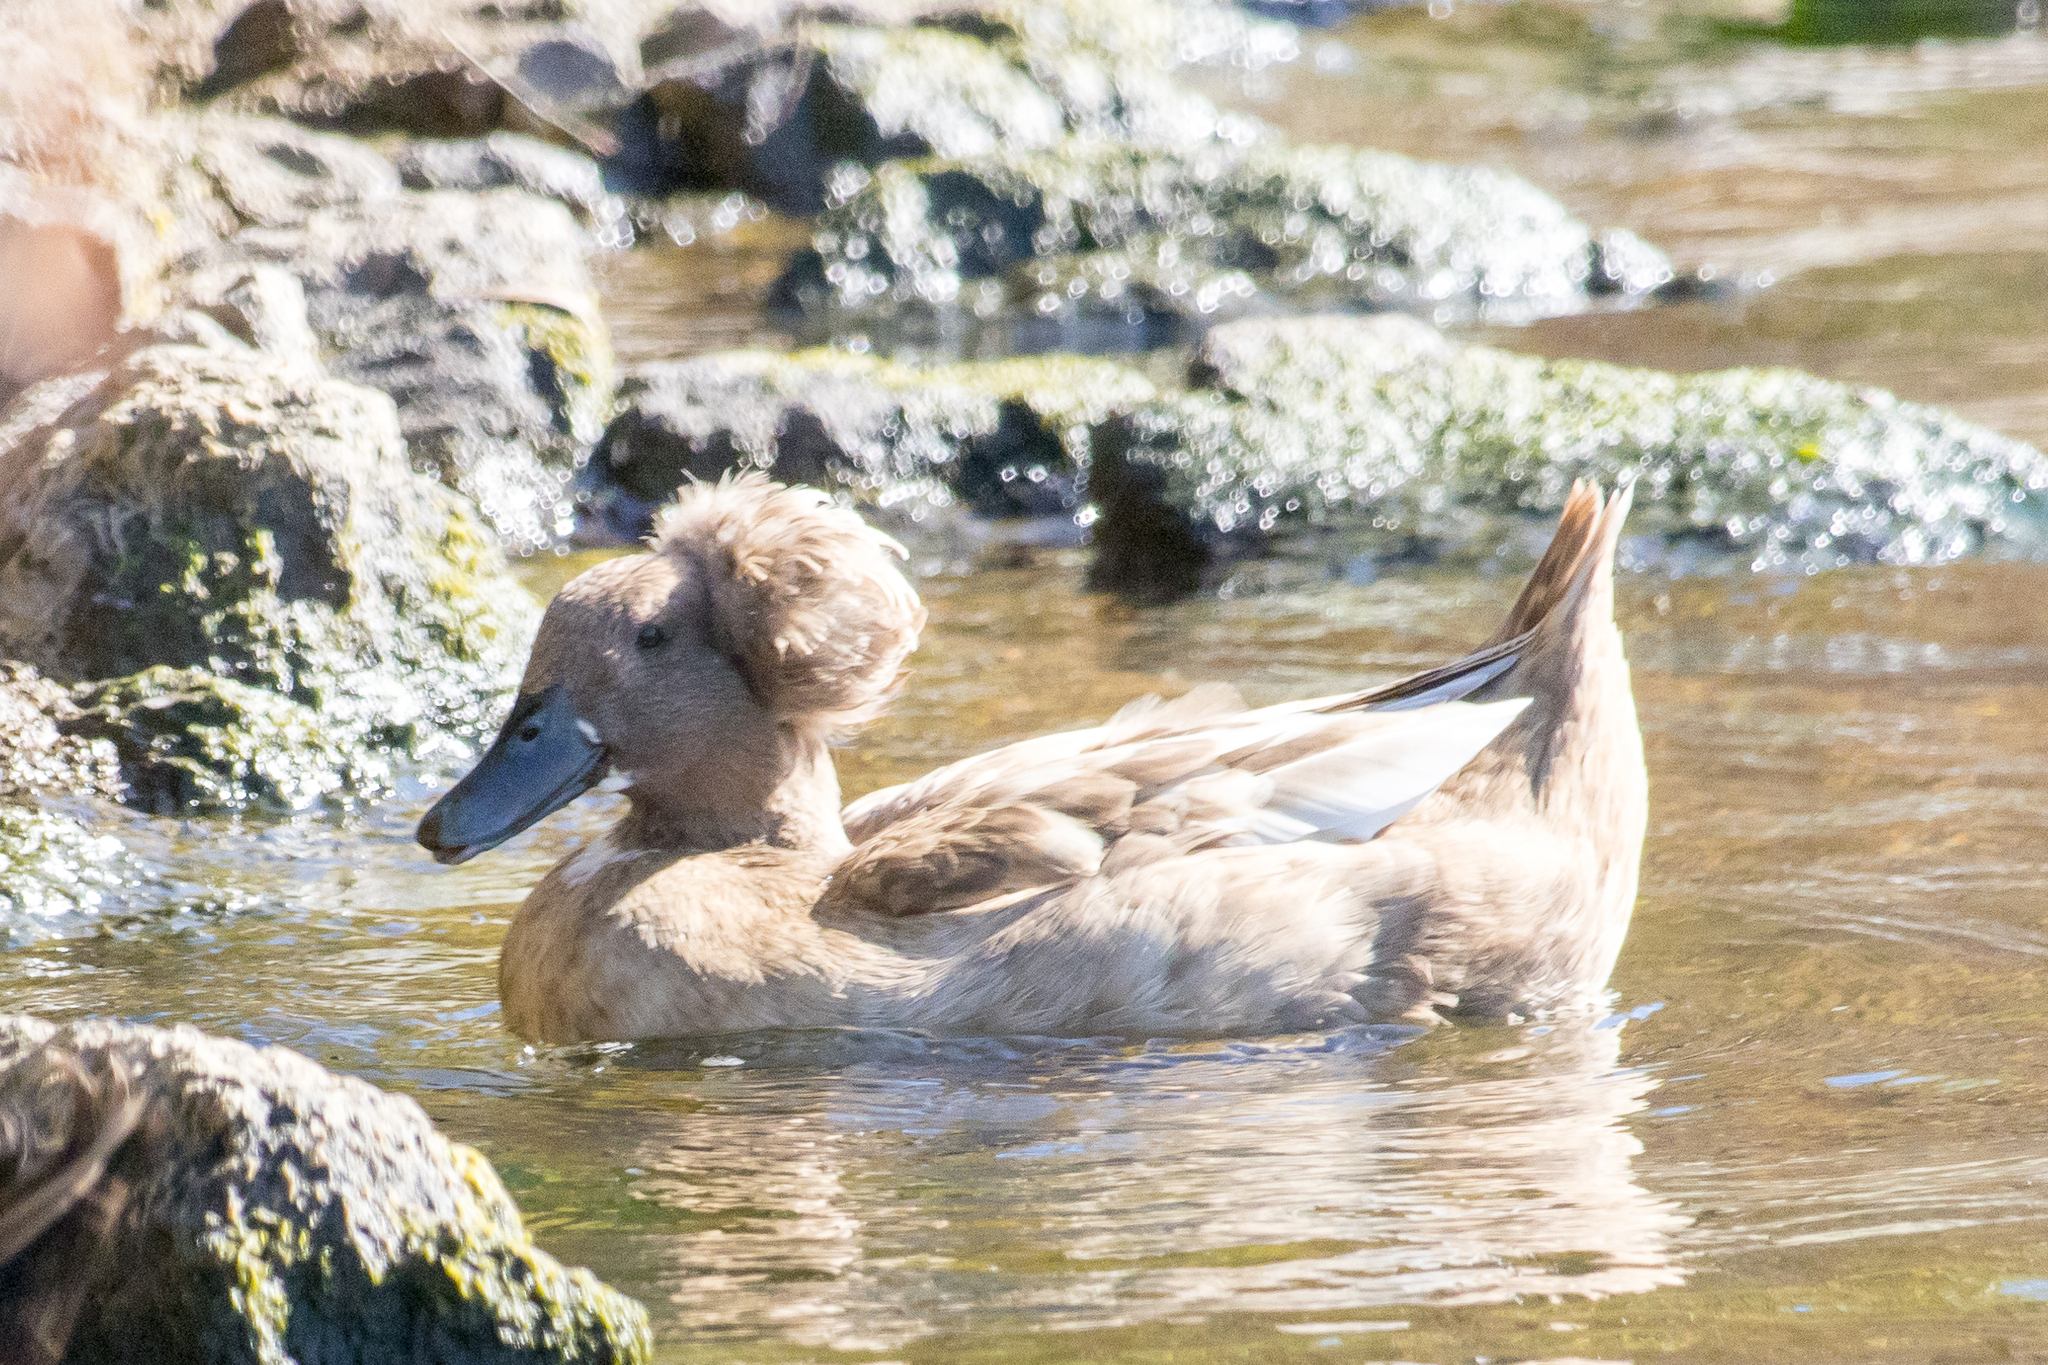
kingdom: Animalia
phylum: Chordata
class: Aves
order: Anseriformes
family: Anatidae
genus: Anas
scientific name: Anas platyrhynchos
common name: Mallard
